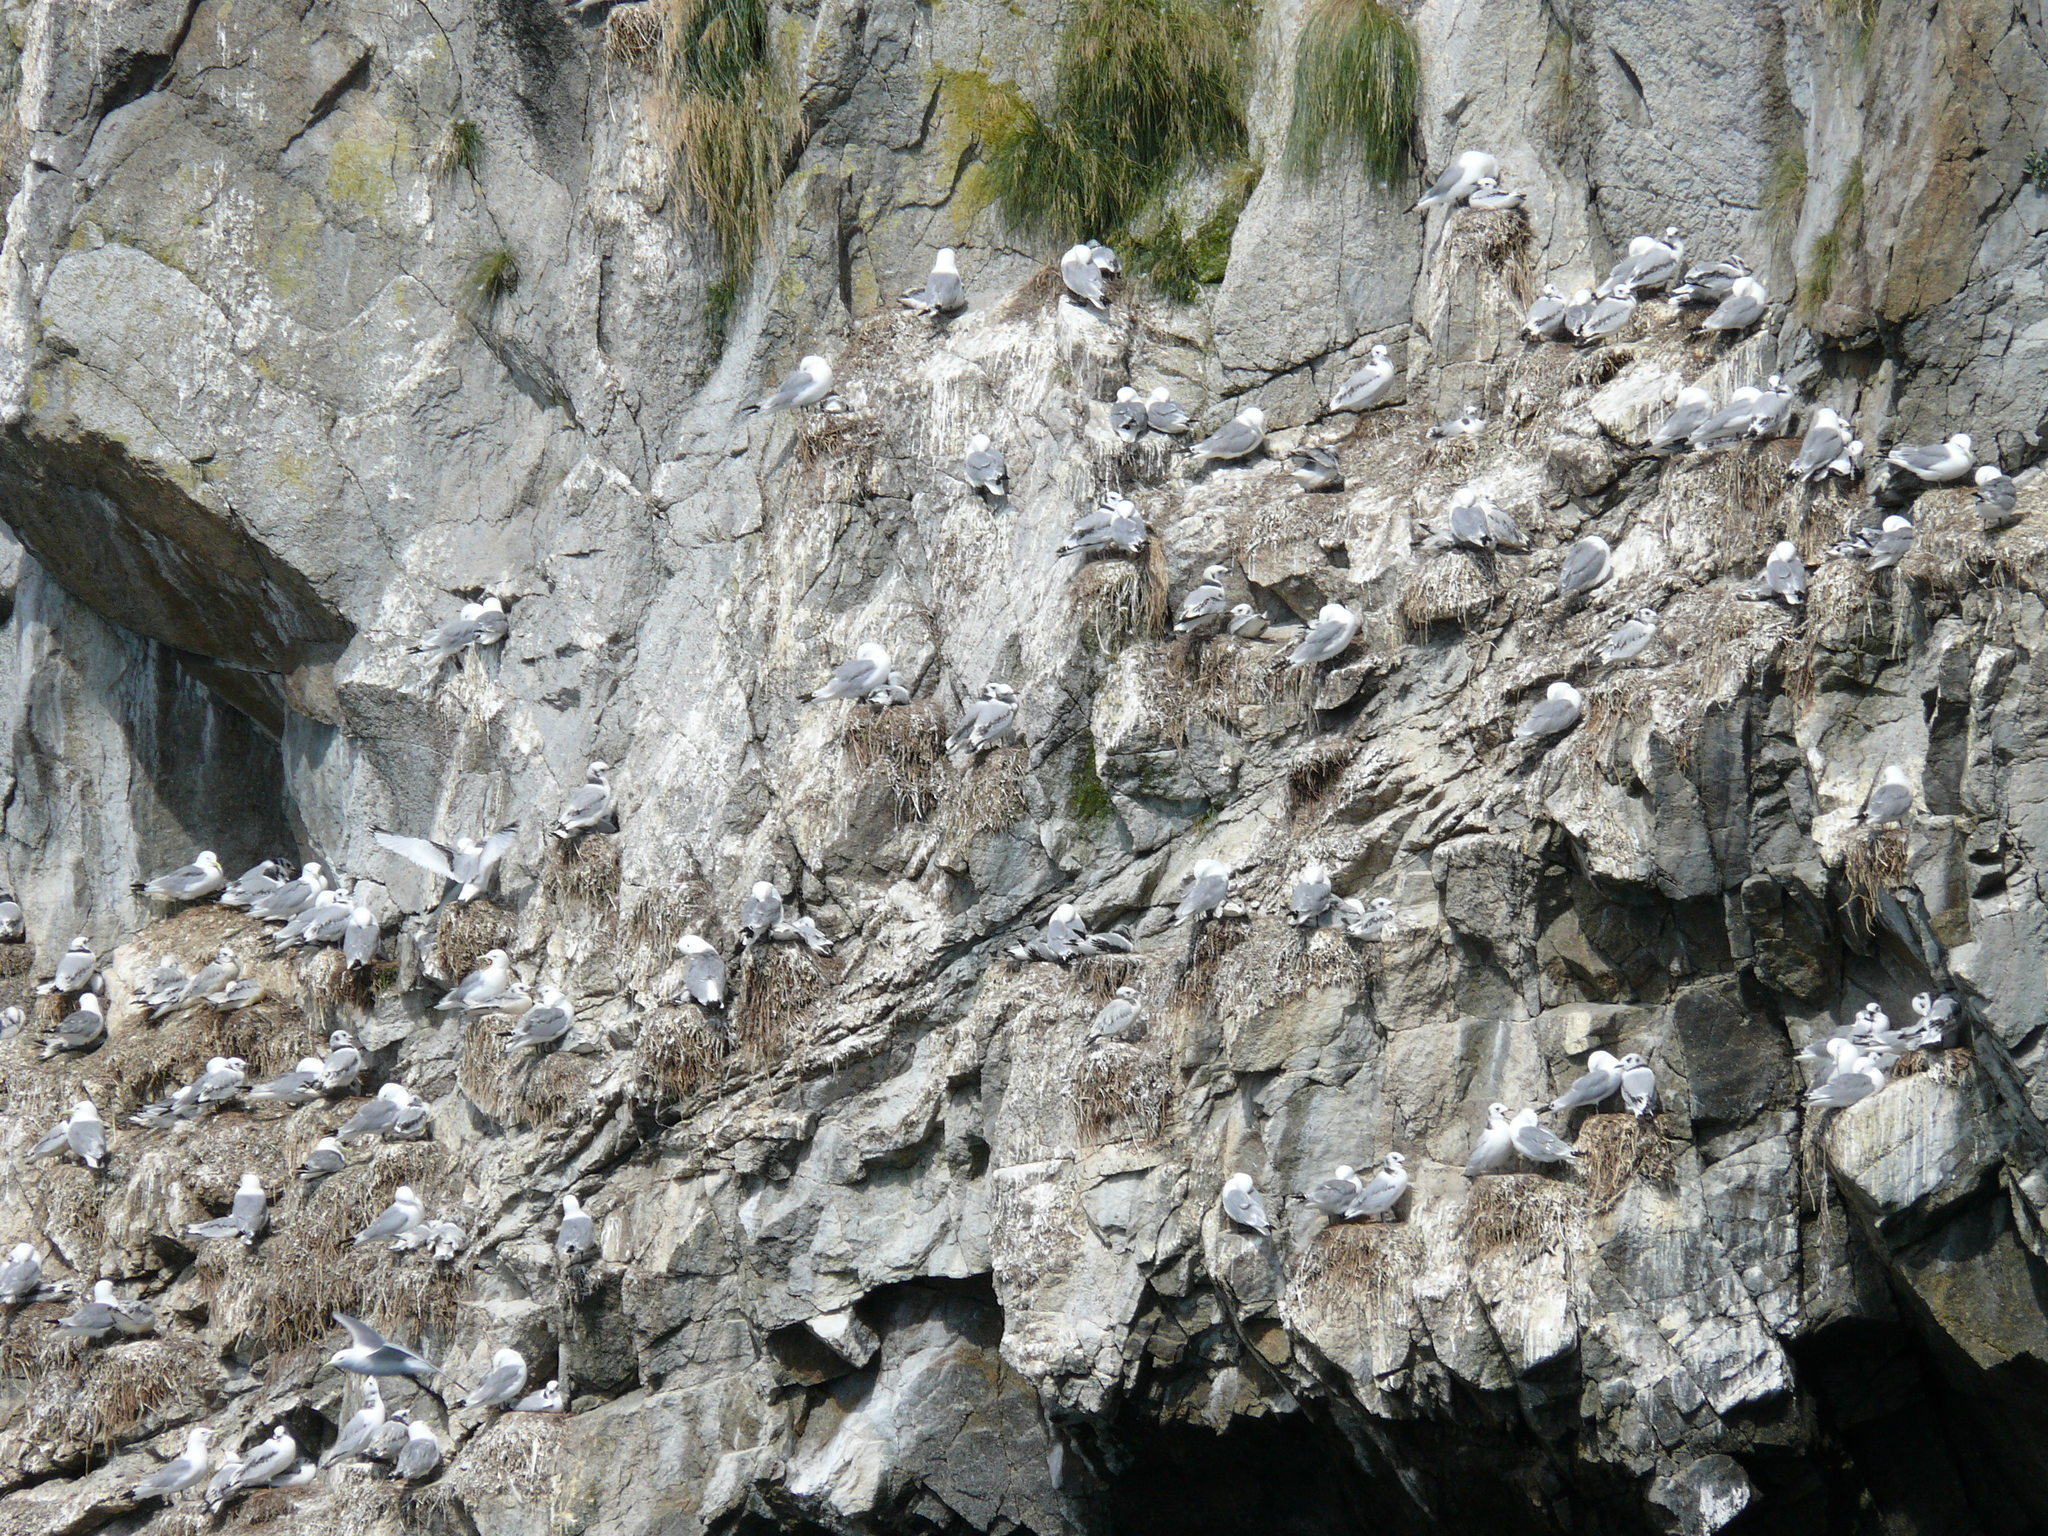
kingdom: Animalia
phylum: Chordata
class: Aves
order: Charadriiformes
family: Laridae
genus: Rissa
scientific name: Rissa tridactyla
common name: Black-legged kittiwake
